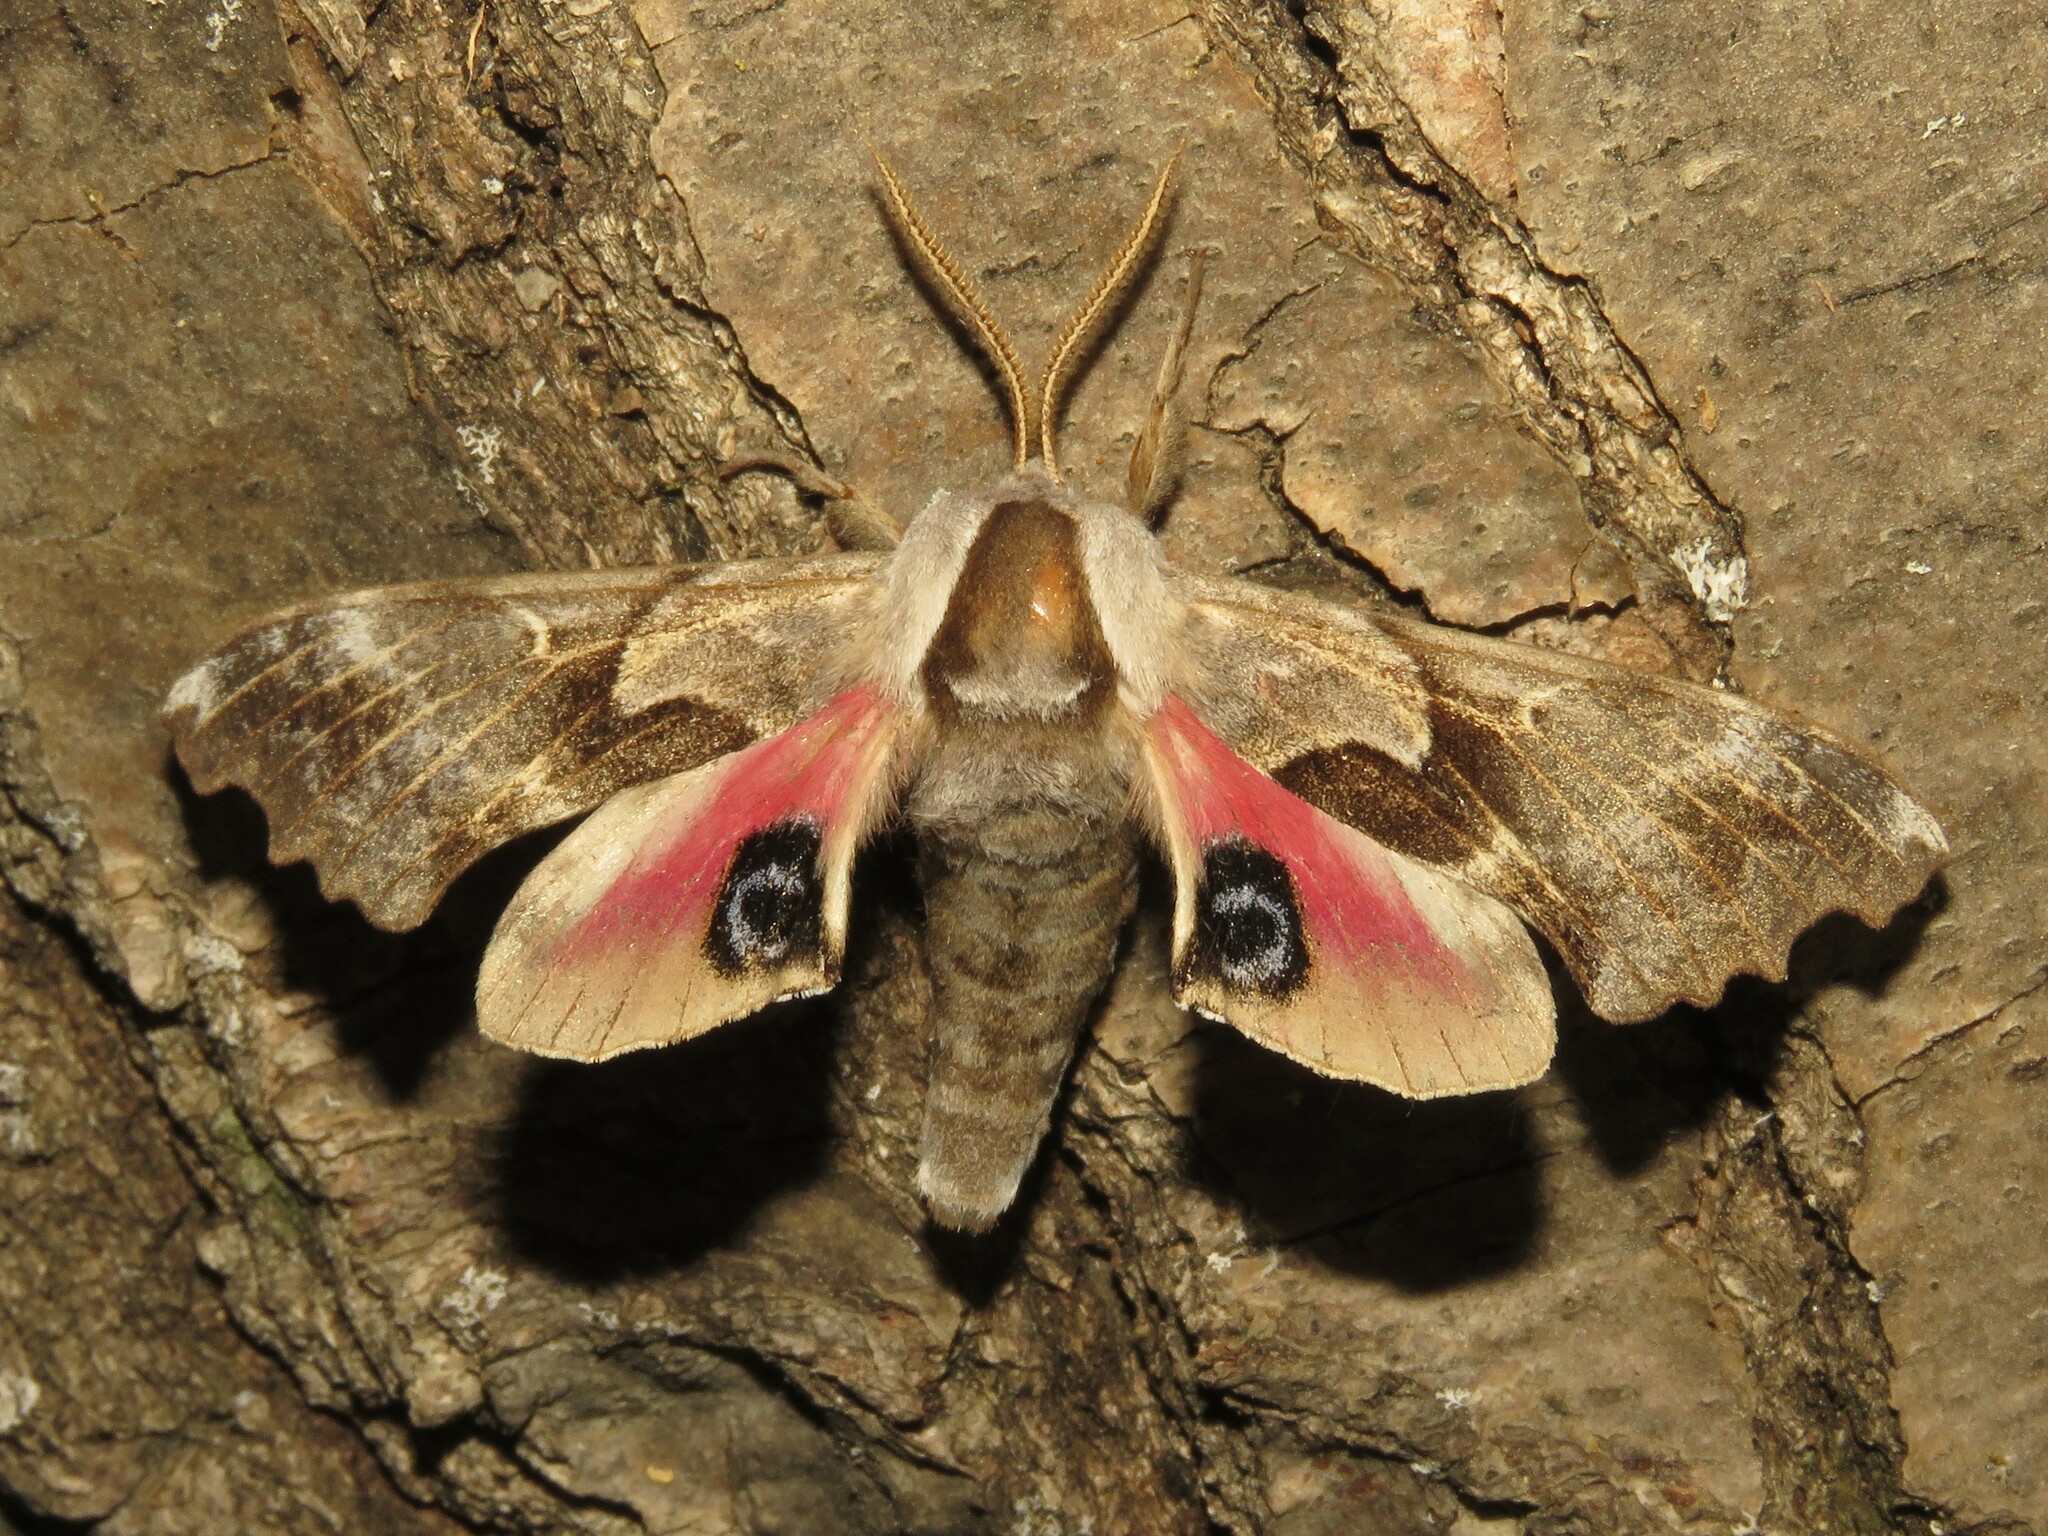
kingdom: Animalia
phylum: Arthropoda
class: Insecta
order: Lepidoptera
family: Sphingidae
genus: Smerinthus
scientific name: Smerinthus cerisyi
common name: Cerisy's sphinx moth
